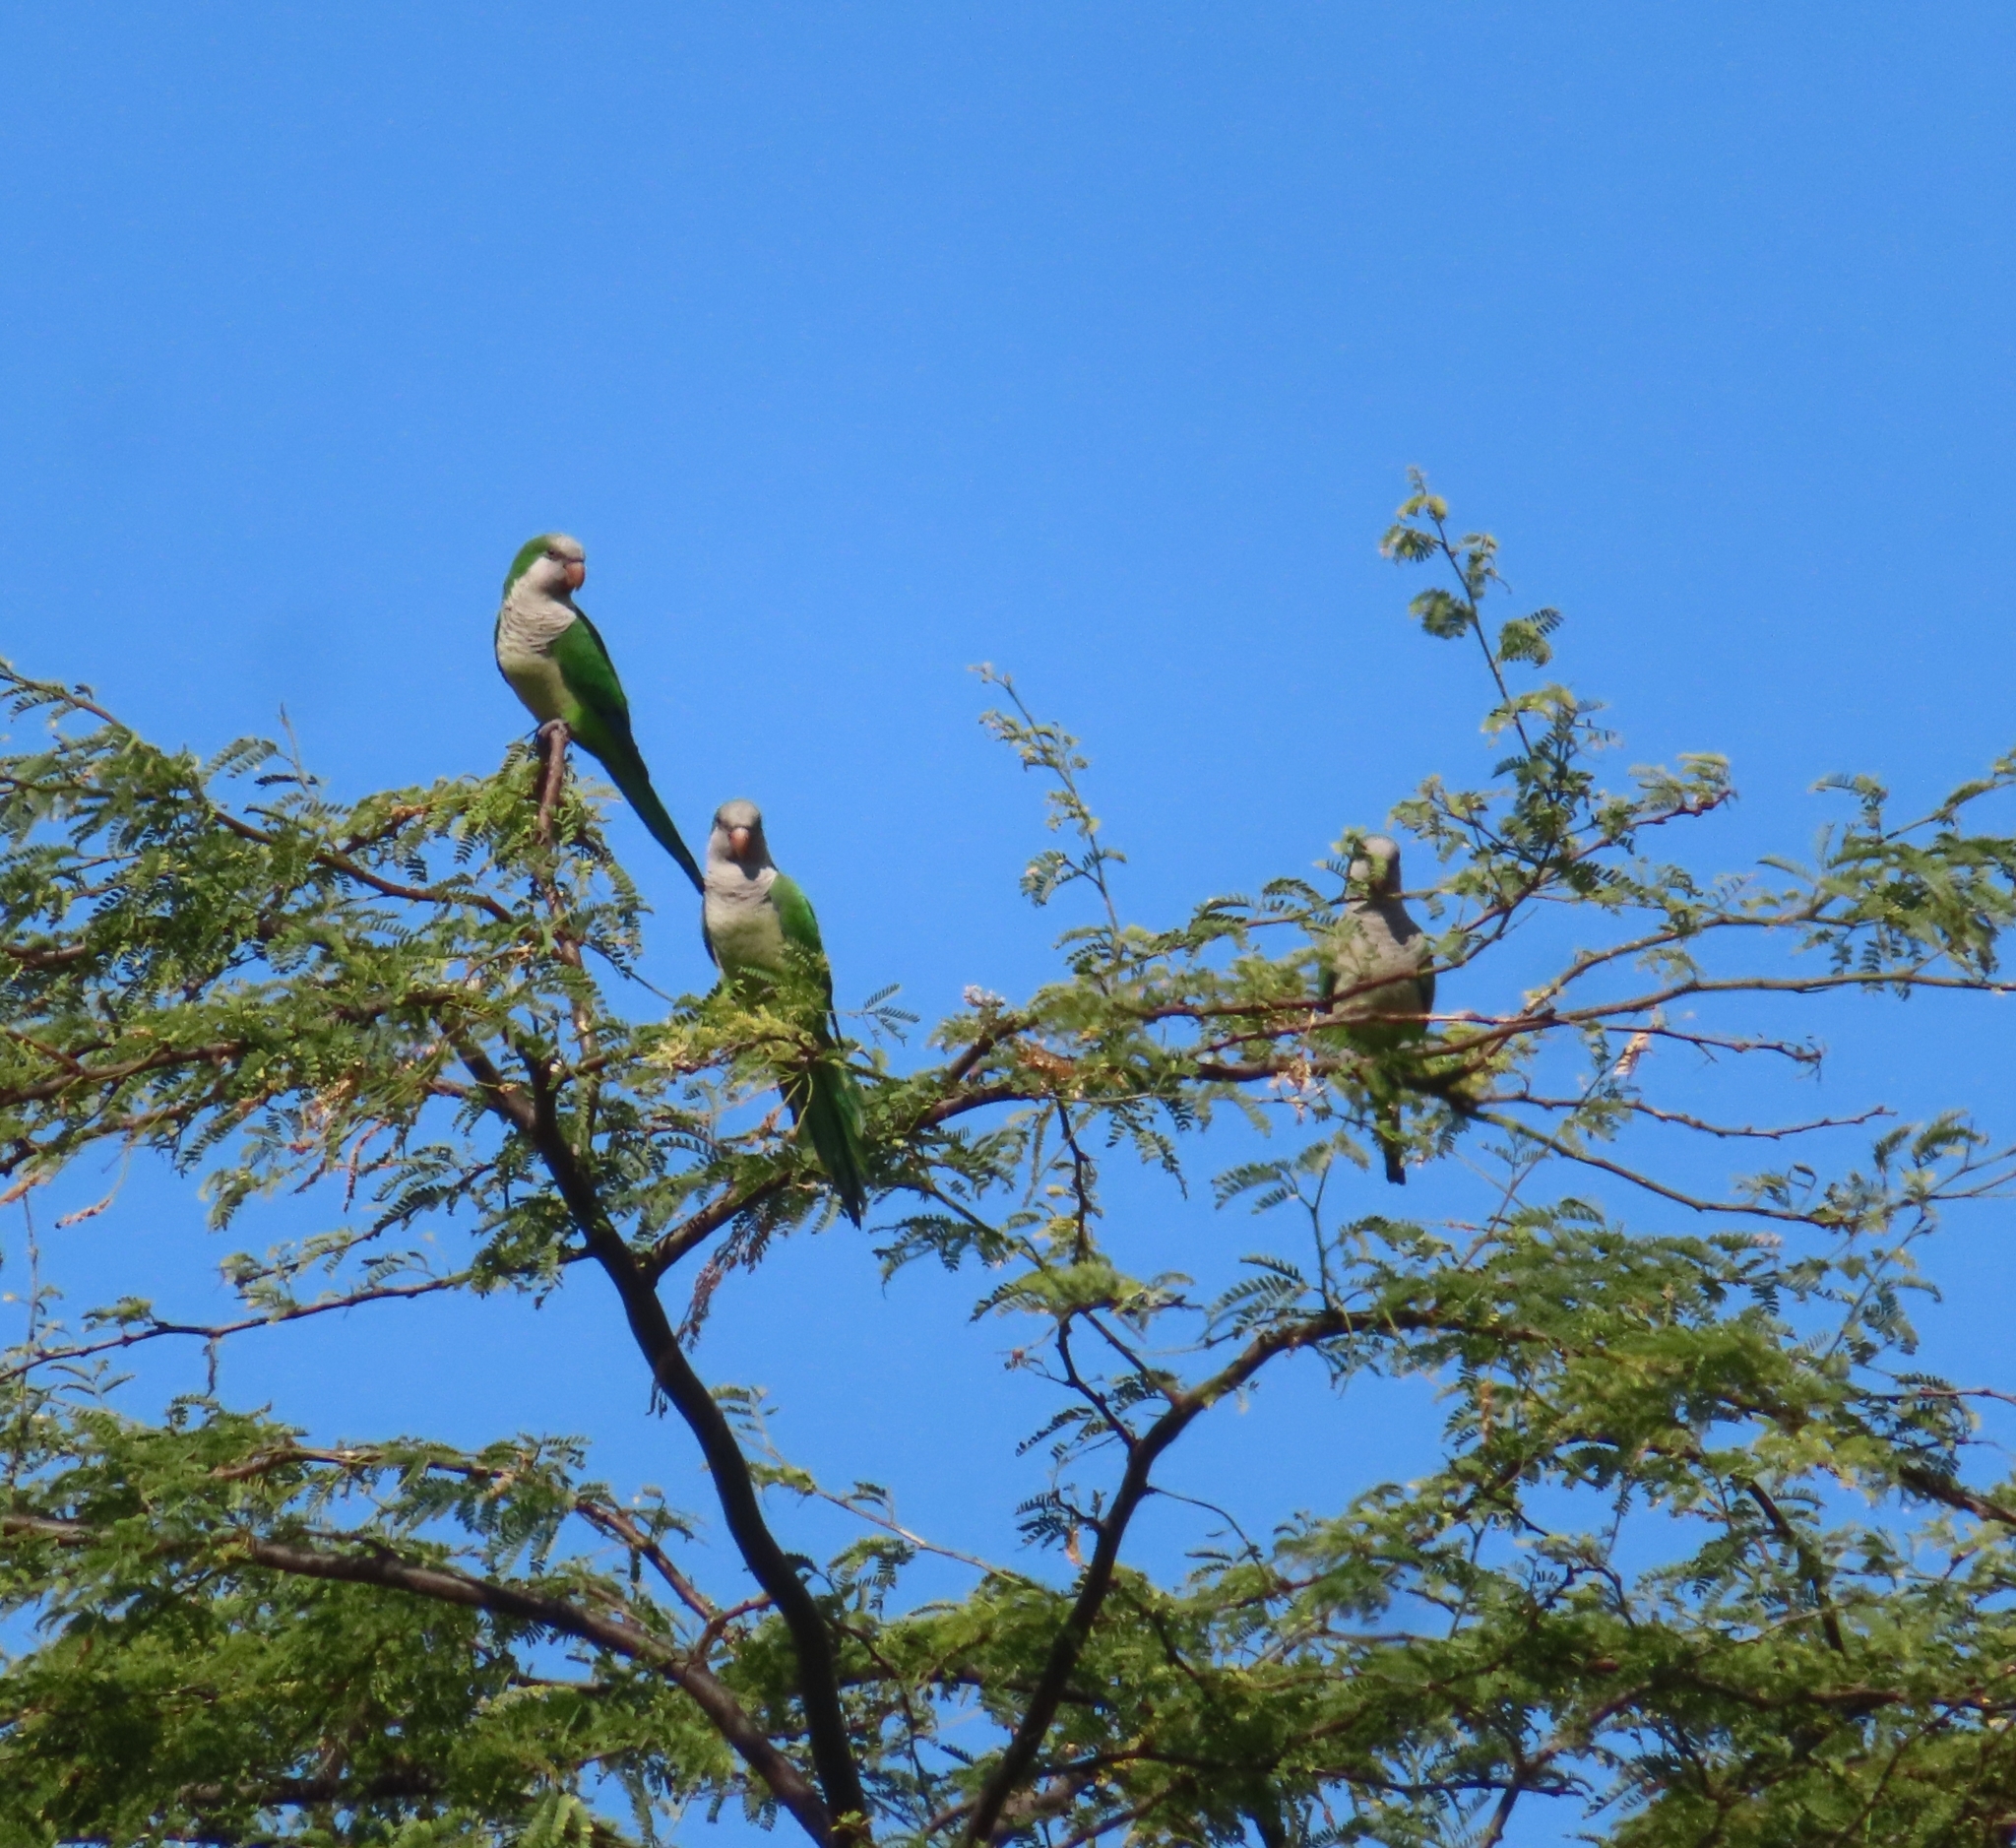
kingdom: Animalia
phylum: Chordata
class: Aves
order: Psittaciformes
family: Psittacidae
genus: Myiopsitta
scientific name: Myiopsitta monachus
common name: Monk parakeet
